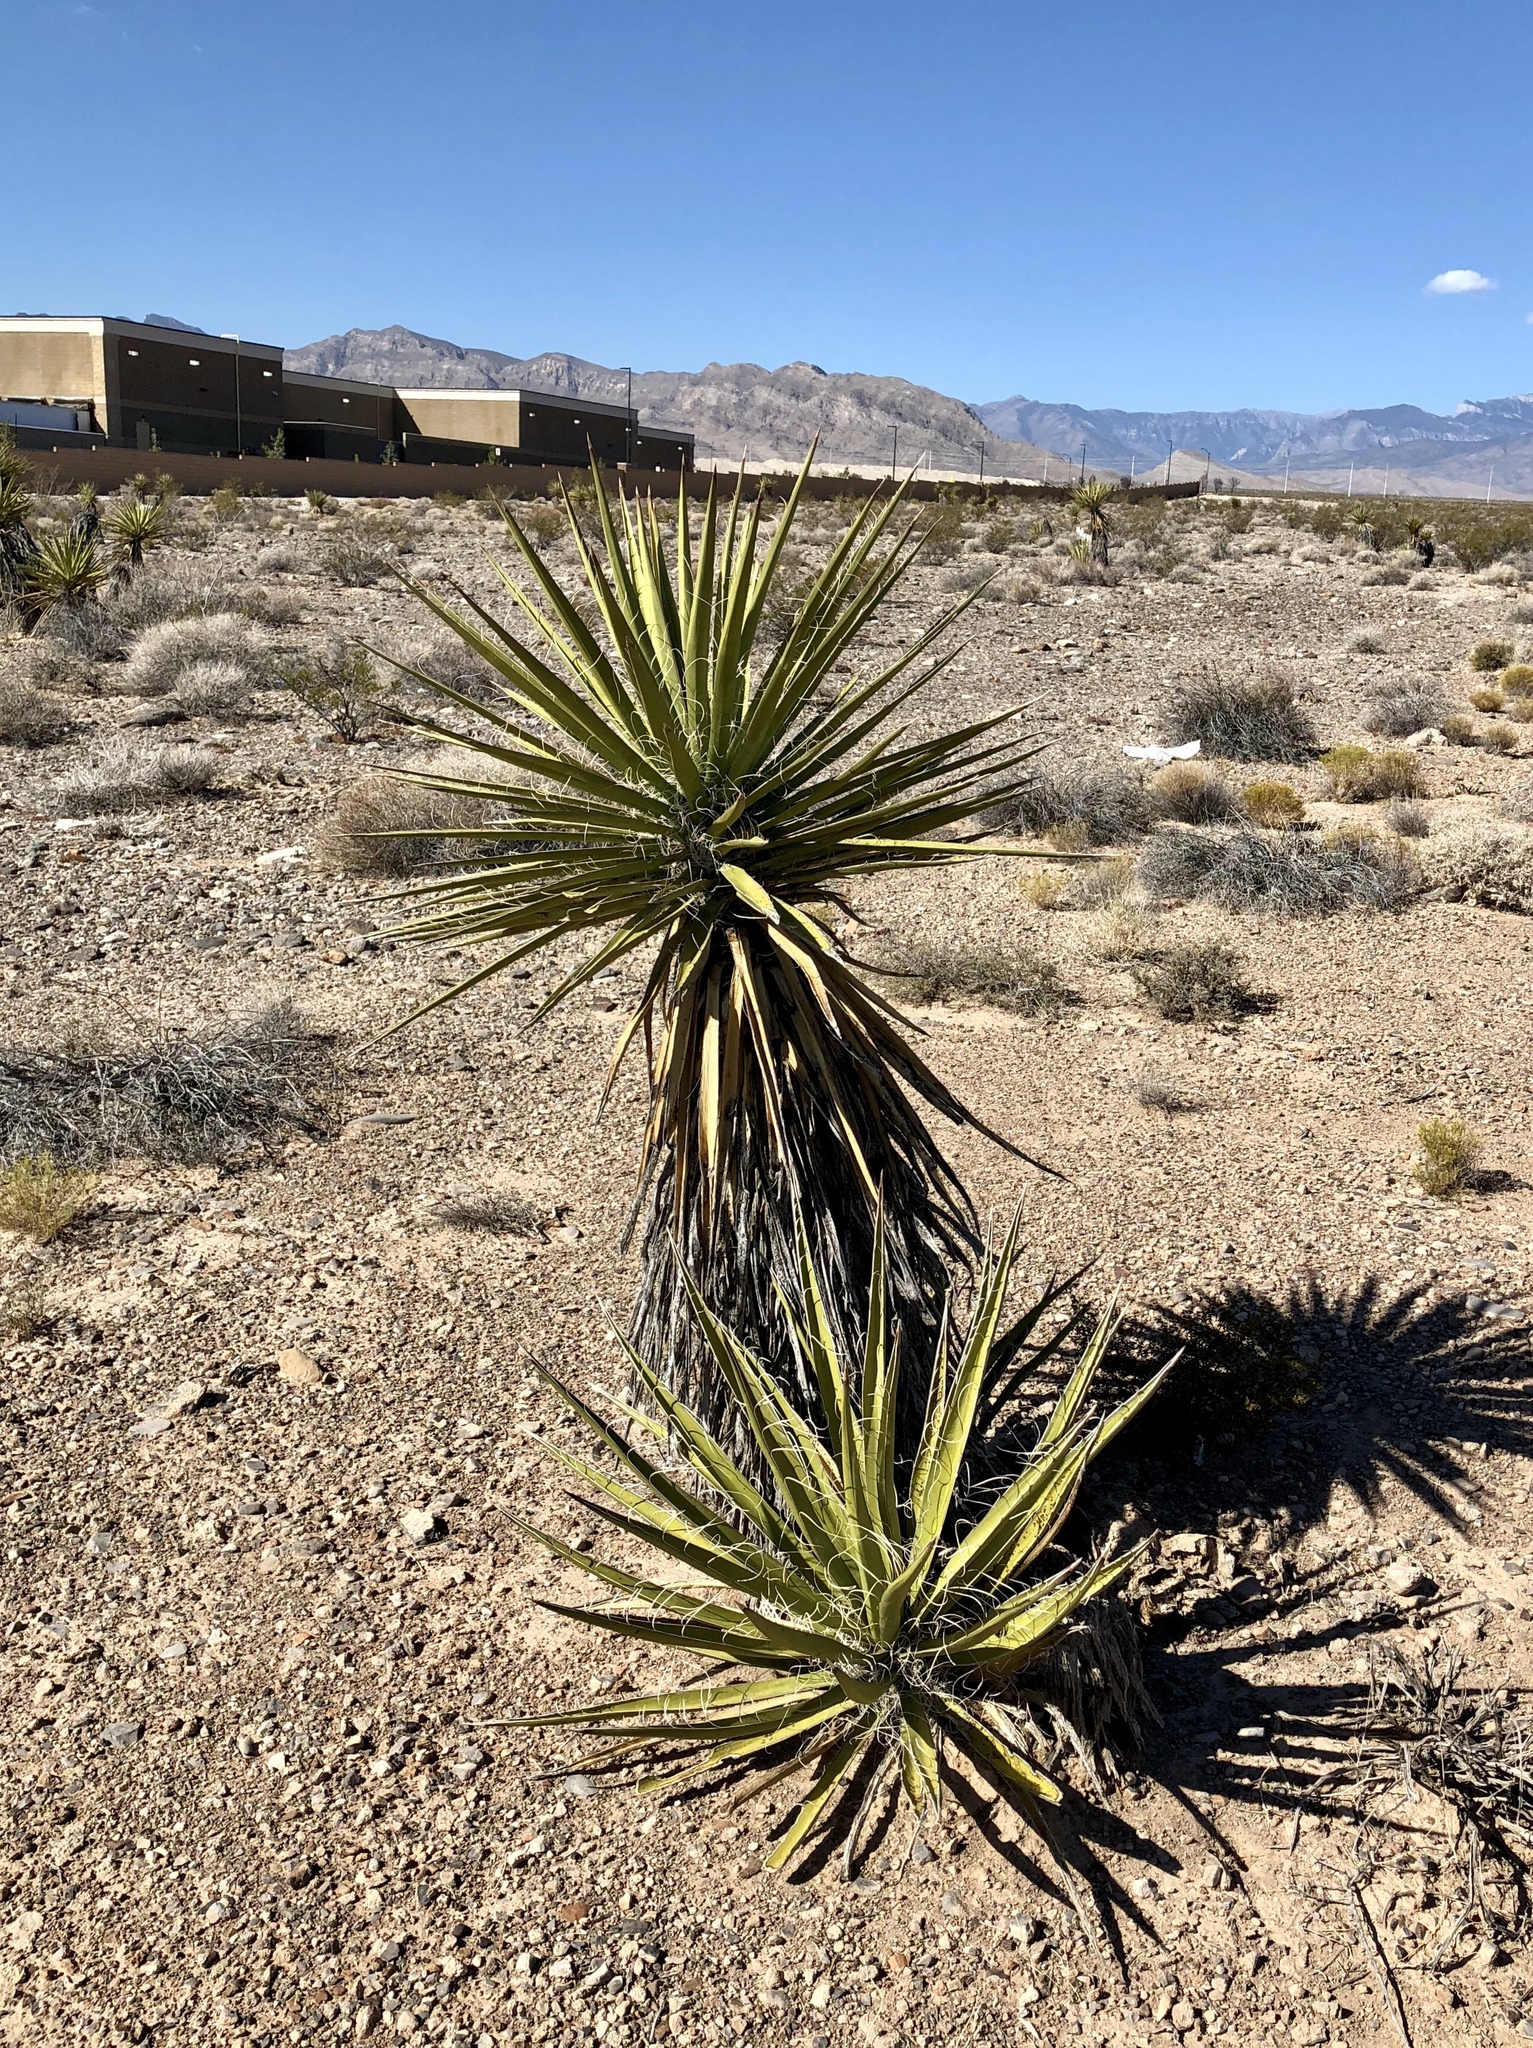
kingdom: Plantae
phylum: Tracheophyta
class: Liliopsida
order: Asparagales
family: Asparagaceae
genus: Yucca
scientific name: Yucca schidigera
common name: Mojave yucca
